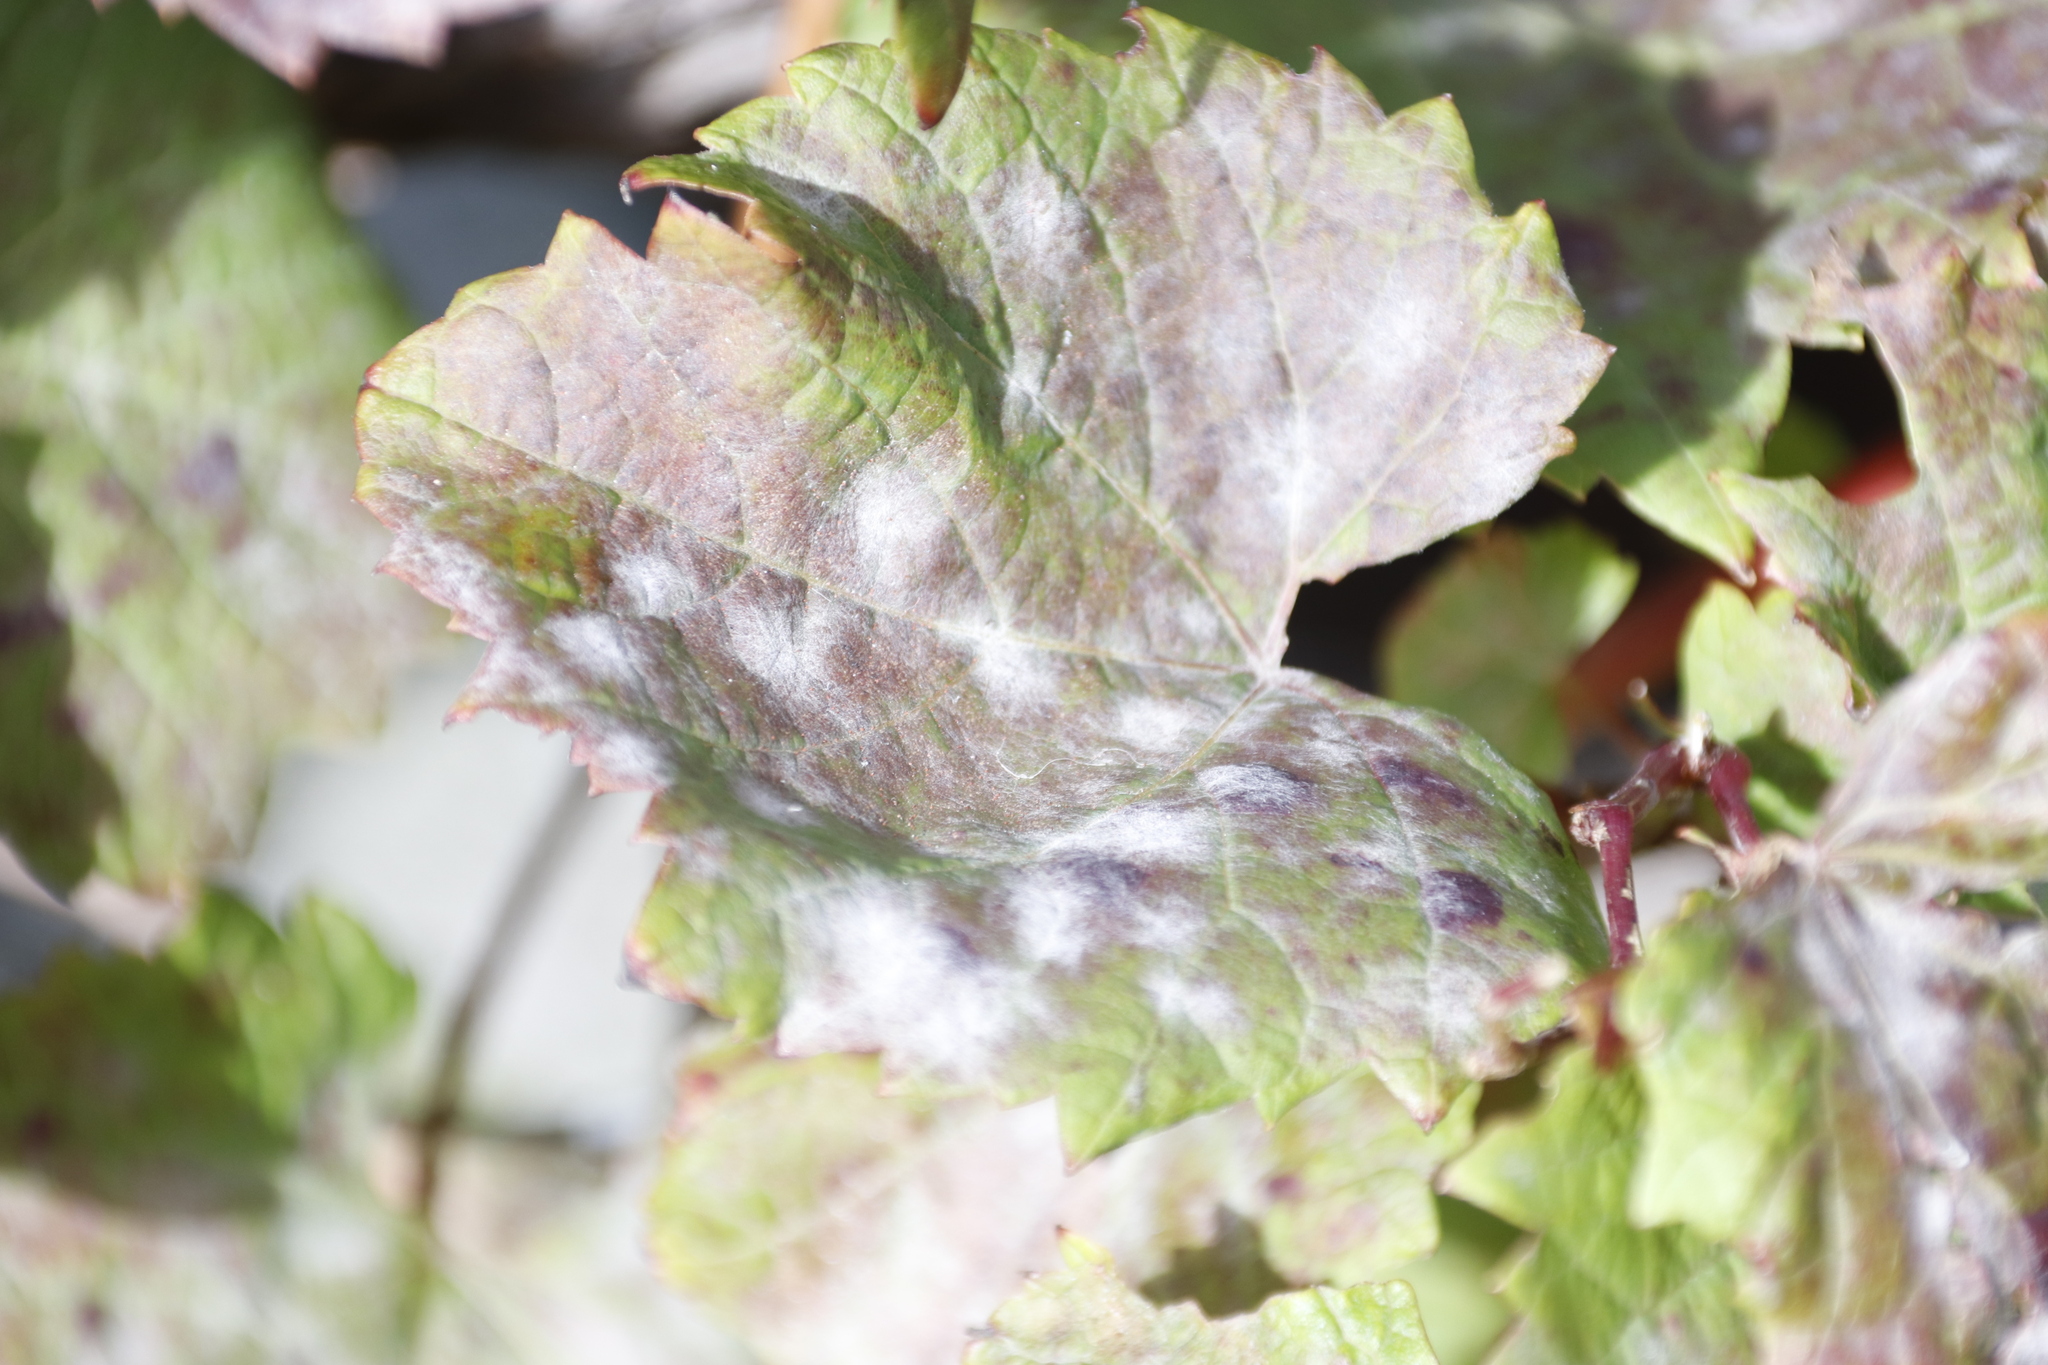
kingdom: Fungi
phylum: Ascomycota
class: Leotiomycetes
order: Helotiales
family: Erysiphaceae
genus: Erysiphe
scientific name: Erysiphe necator
